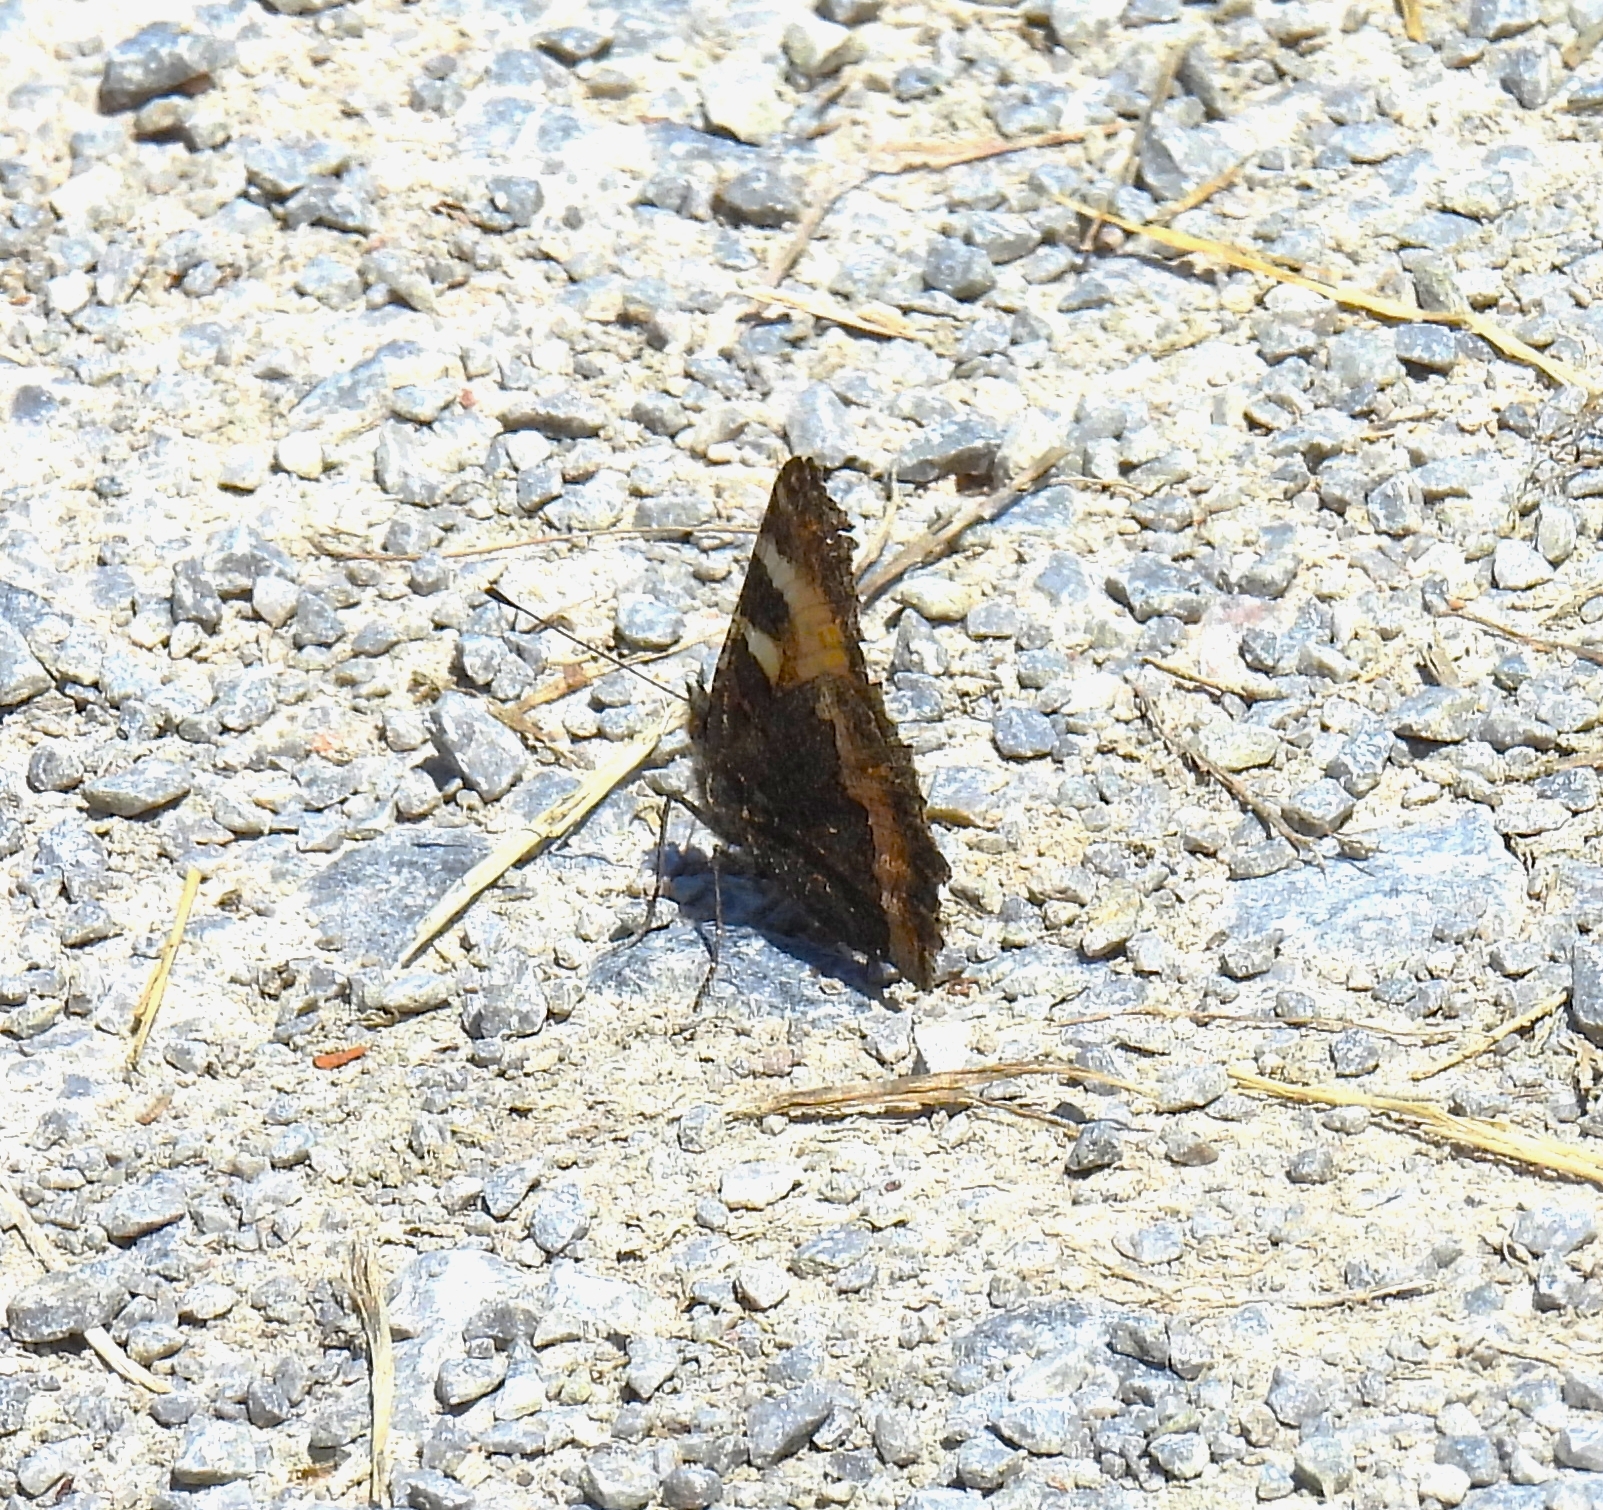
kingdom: Animalia
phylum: Arthropoda
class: Insecta
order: Lepidoptera
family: Nymphalidae
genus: Aglais
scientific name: Aglais urticae
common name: Small tortoiseshell
